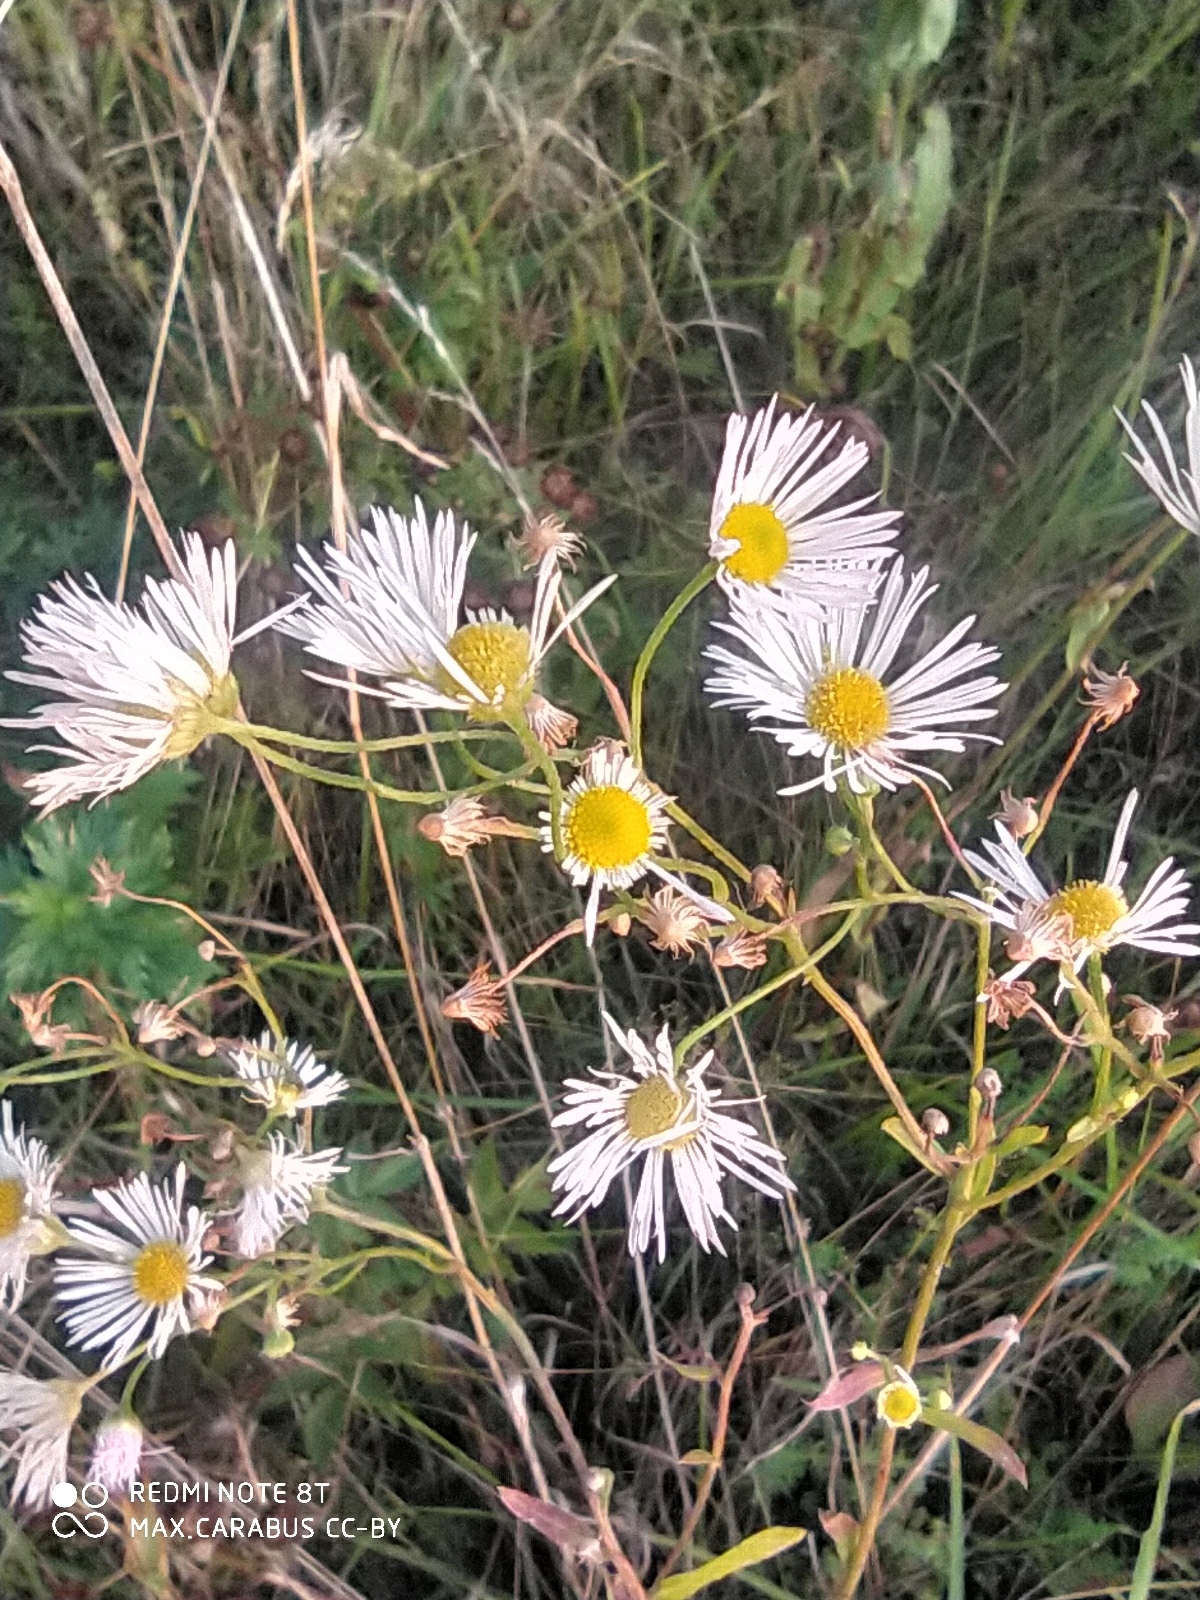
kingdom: Plantae
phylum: Tracheophyta
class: Magnoliopsida
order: Asterales
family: Asteraceae
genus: Erigeron
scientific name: Erigeron annuus
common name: Tall fleabane
